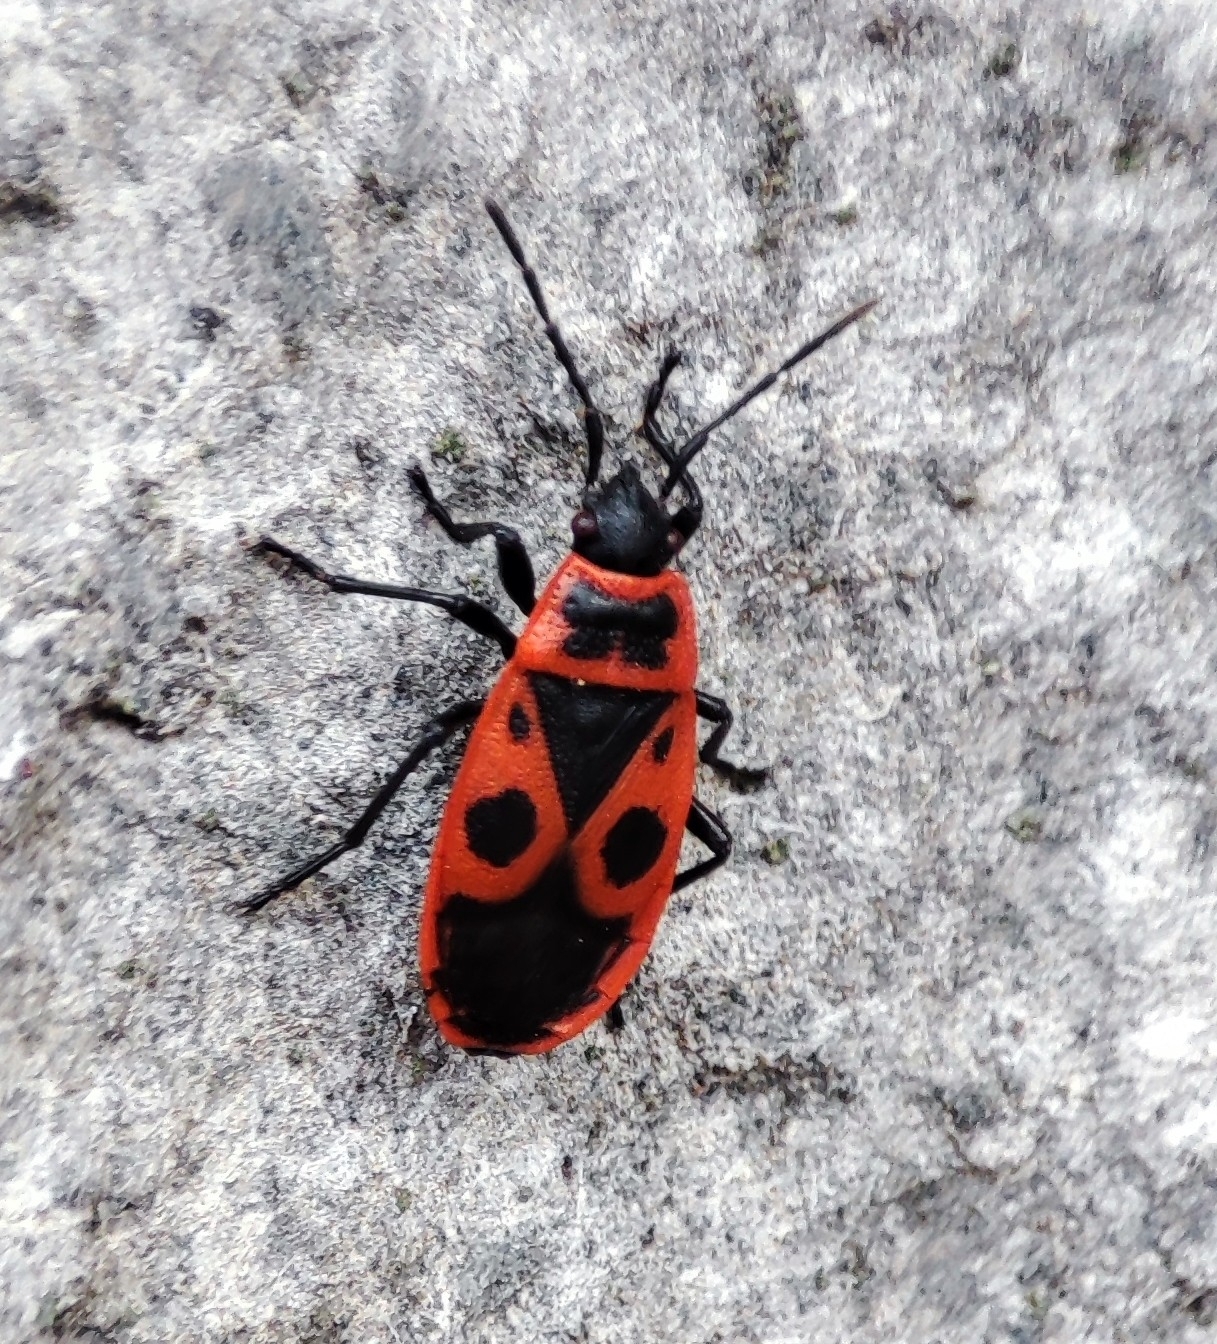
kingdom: Animalia
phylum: Arthropoda
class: Insecta
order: Hemiptera
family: Pyrrhocoridae
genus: Pyrrhocoris
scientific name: Pyrrhocoris apterus
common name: Firebug
